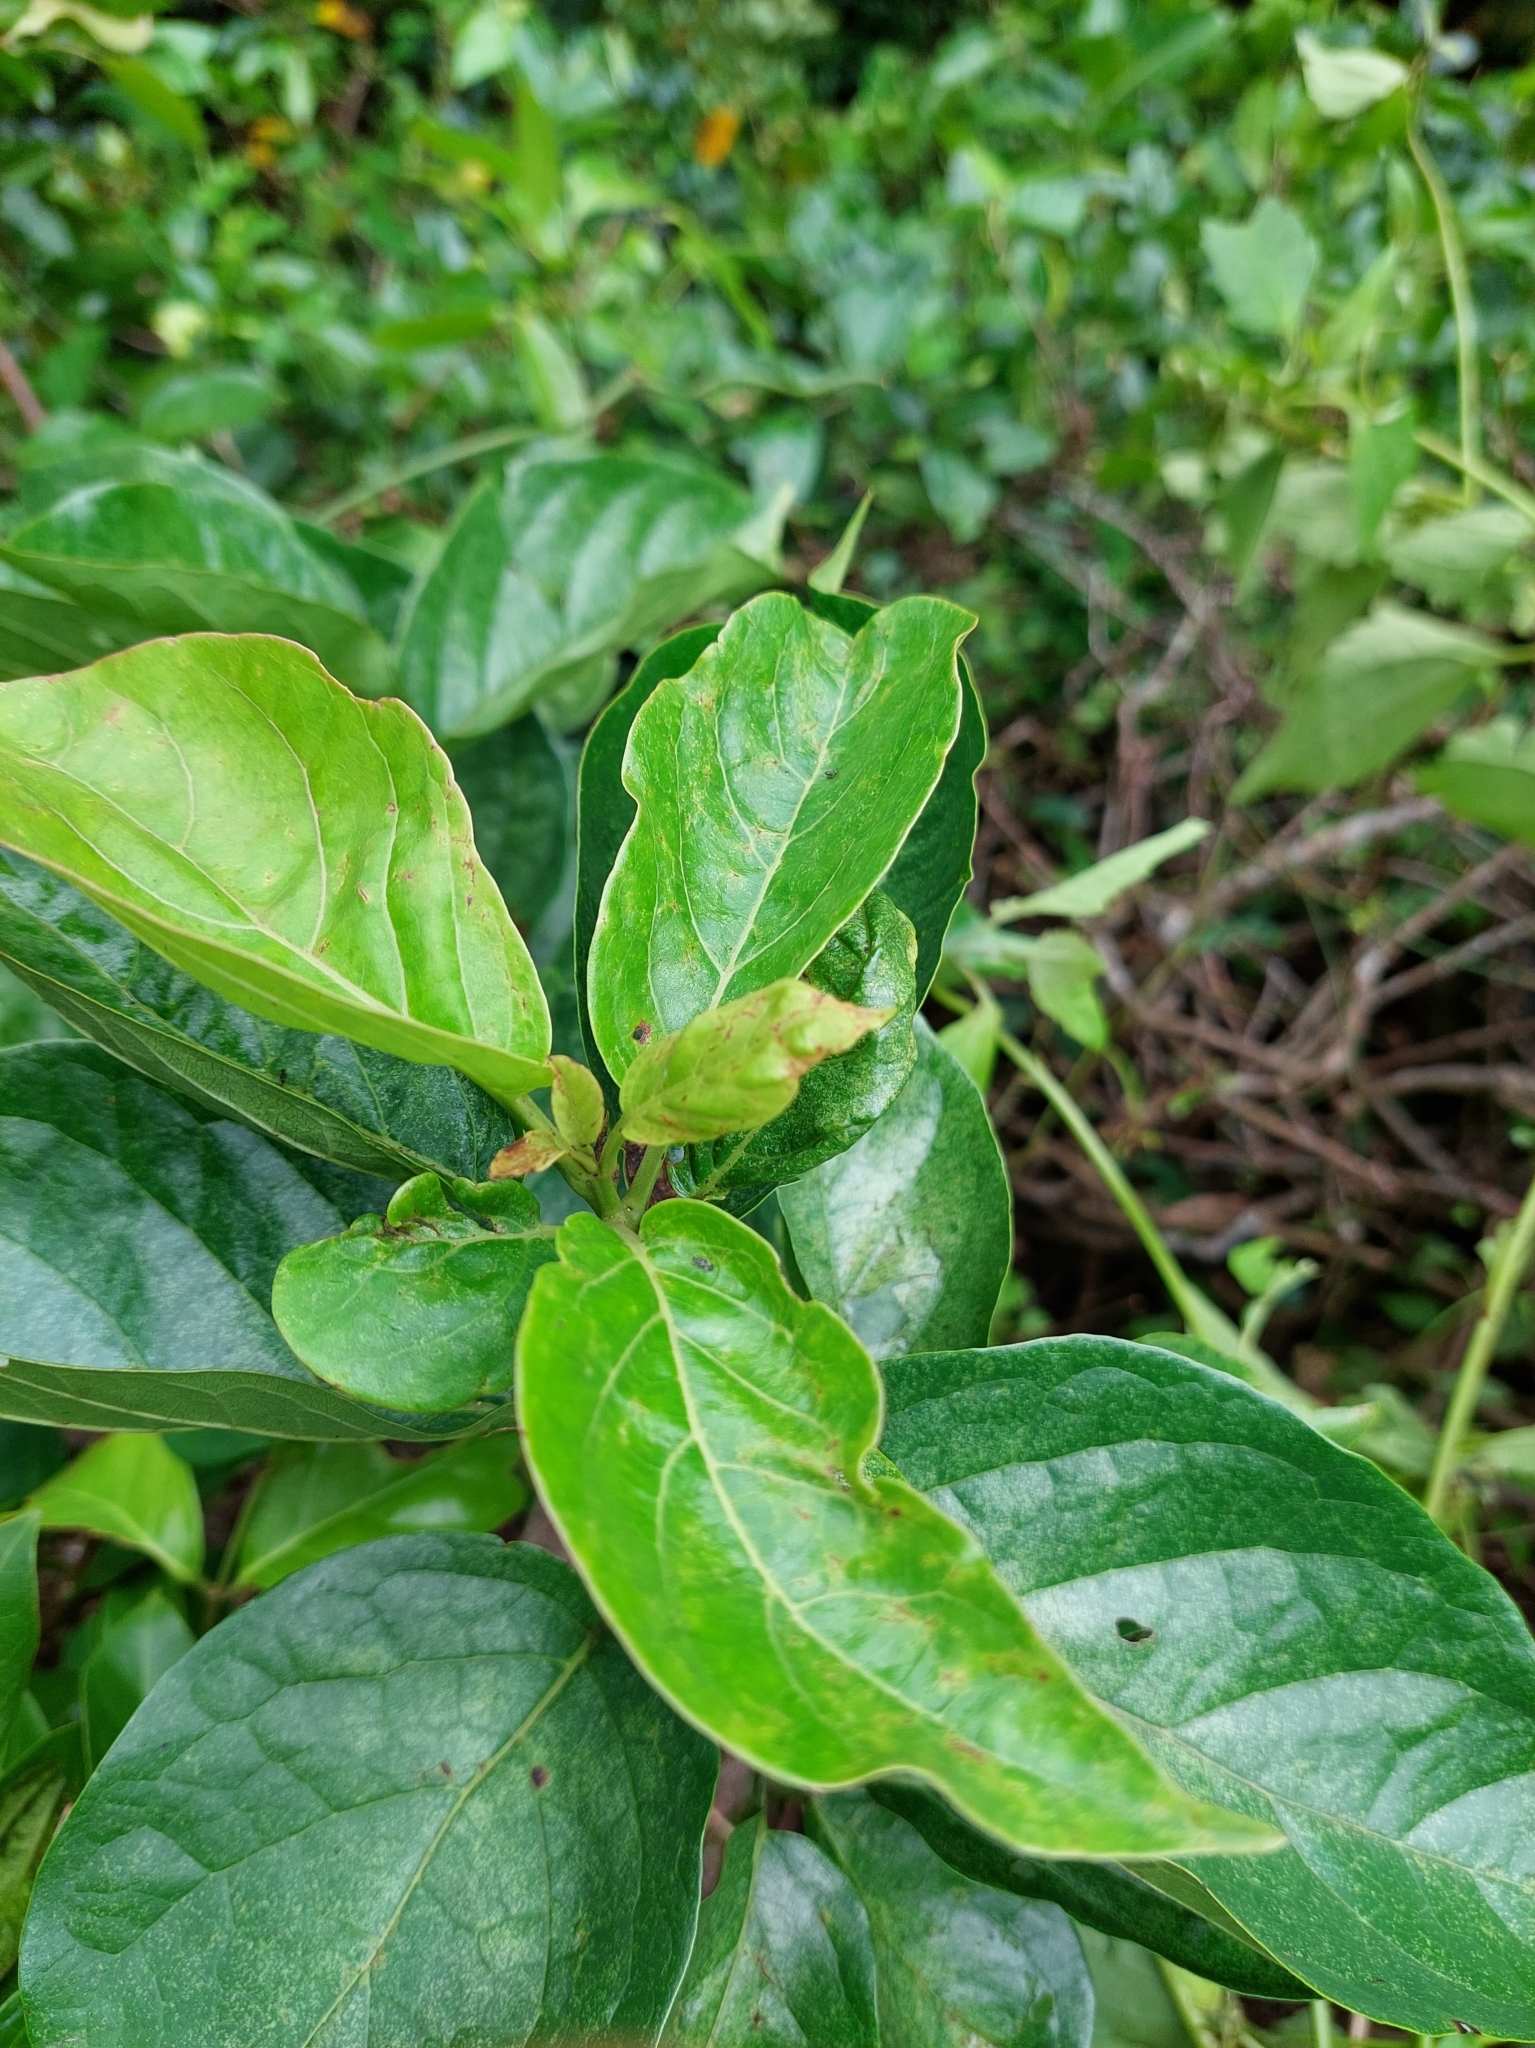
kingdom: Plantae
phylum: Tracheophyta
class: Magnoliopsida
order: Boraginales
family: Ehretiaceae
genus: Ehretia
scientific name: Ehretia resinosa
